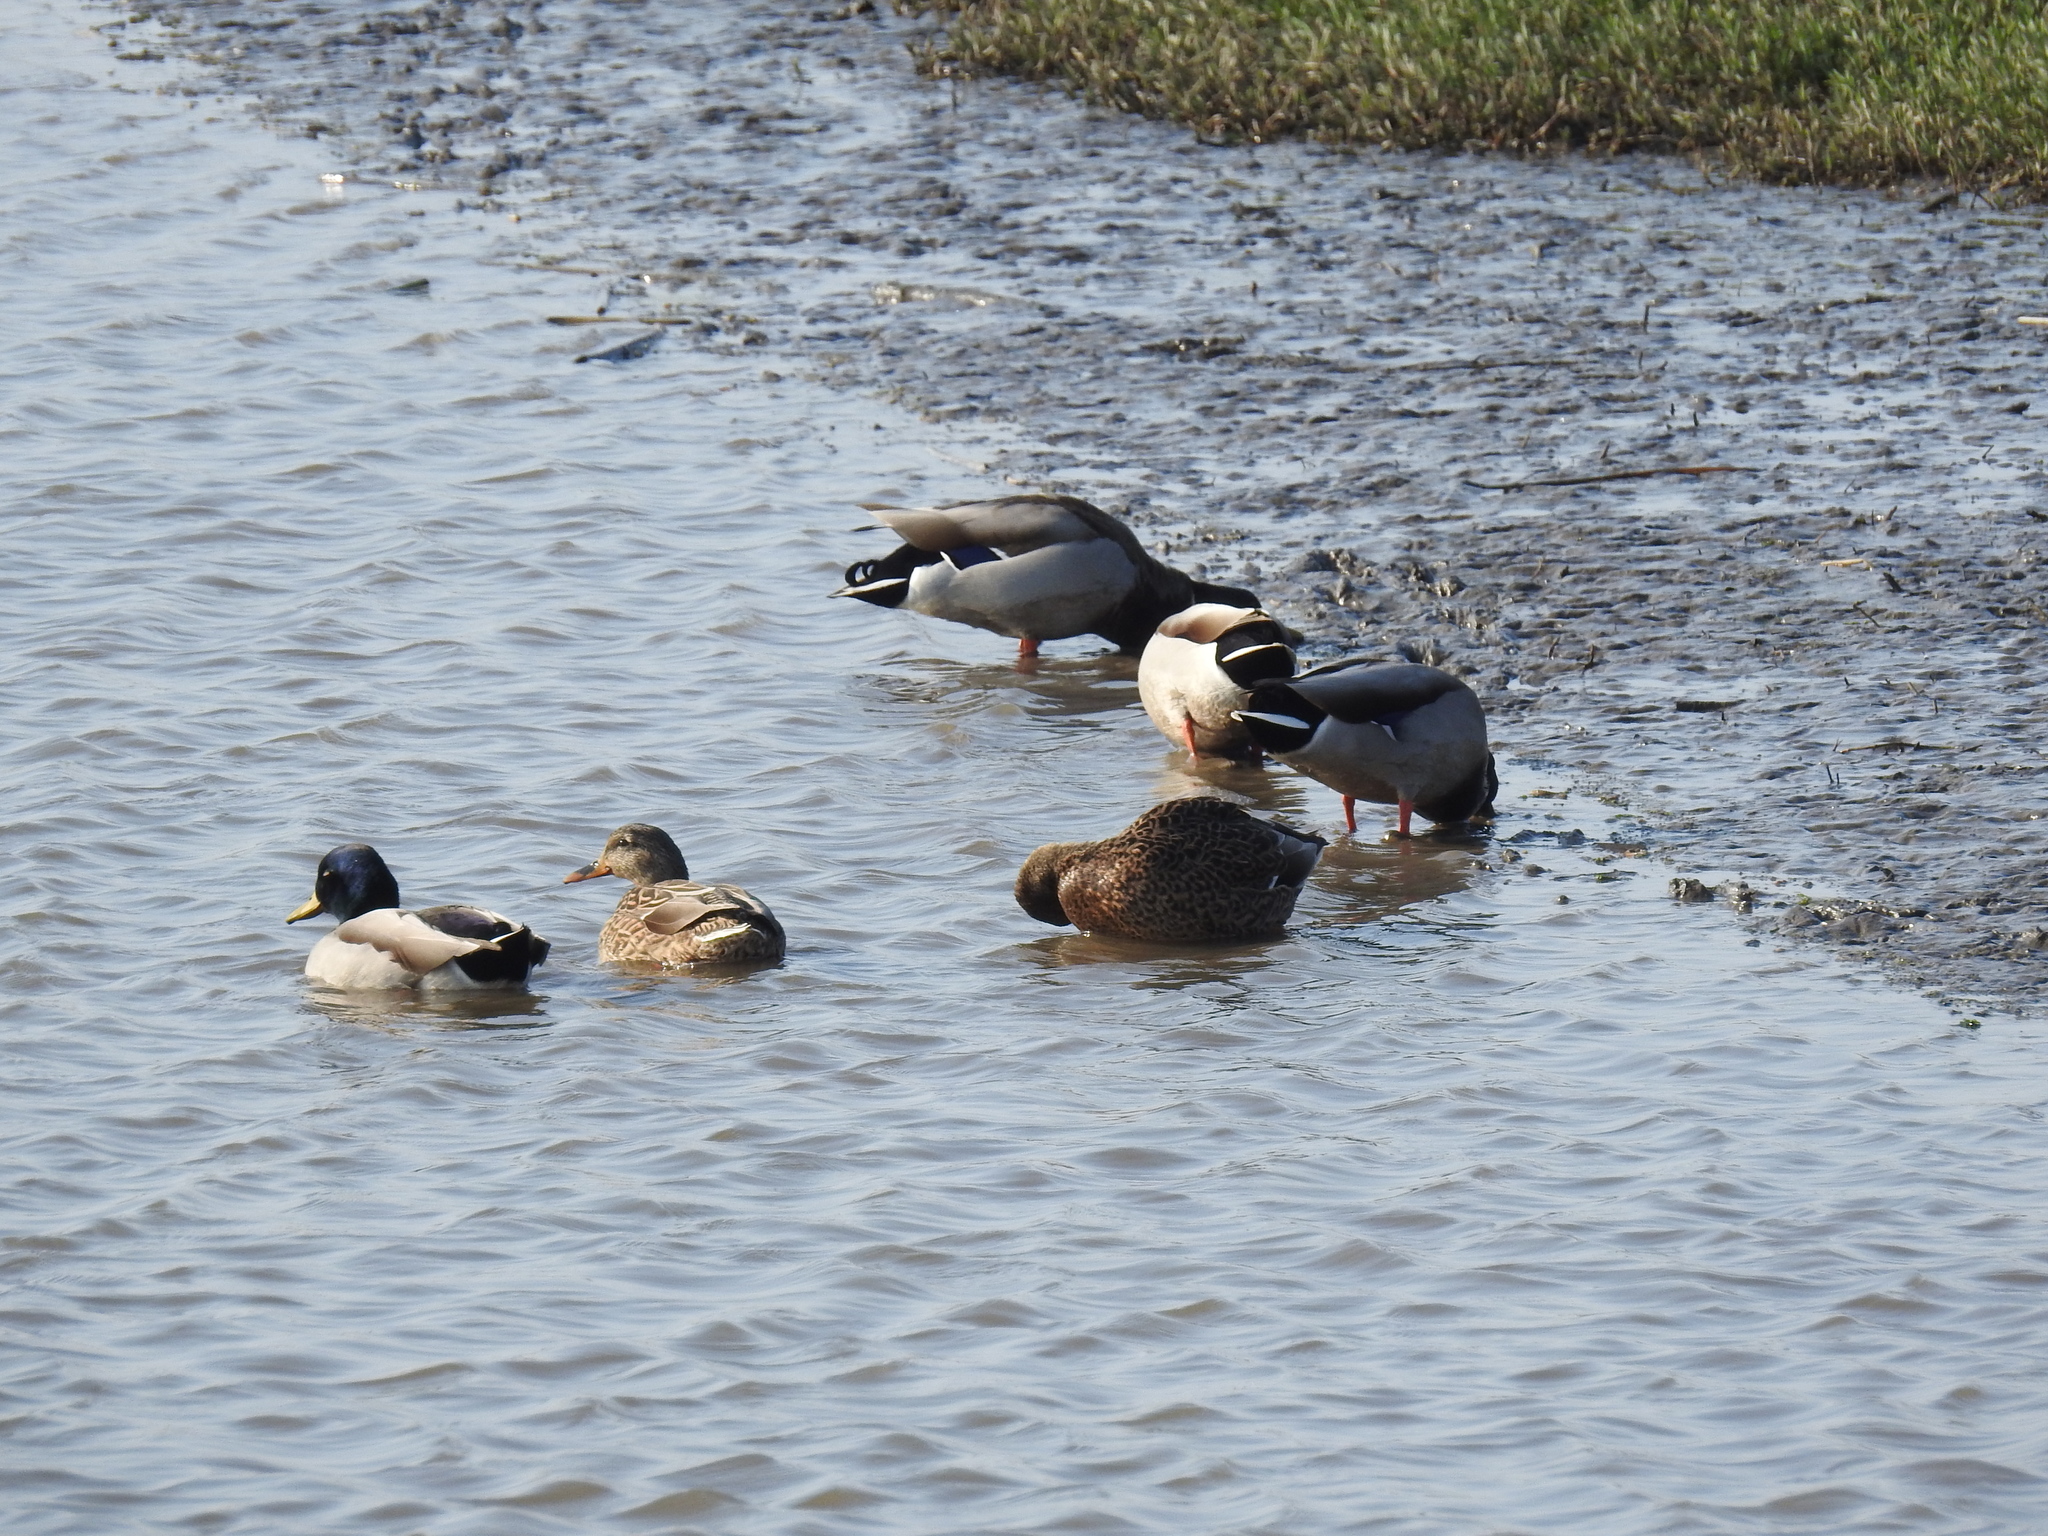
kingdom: Animalia
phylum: Chordata
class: Aves
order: Anseriformes
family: Anatidae
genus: Anas
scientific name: Anas platyrhynchos
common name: Mallard
